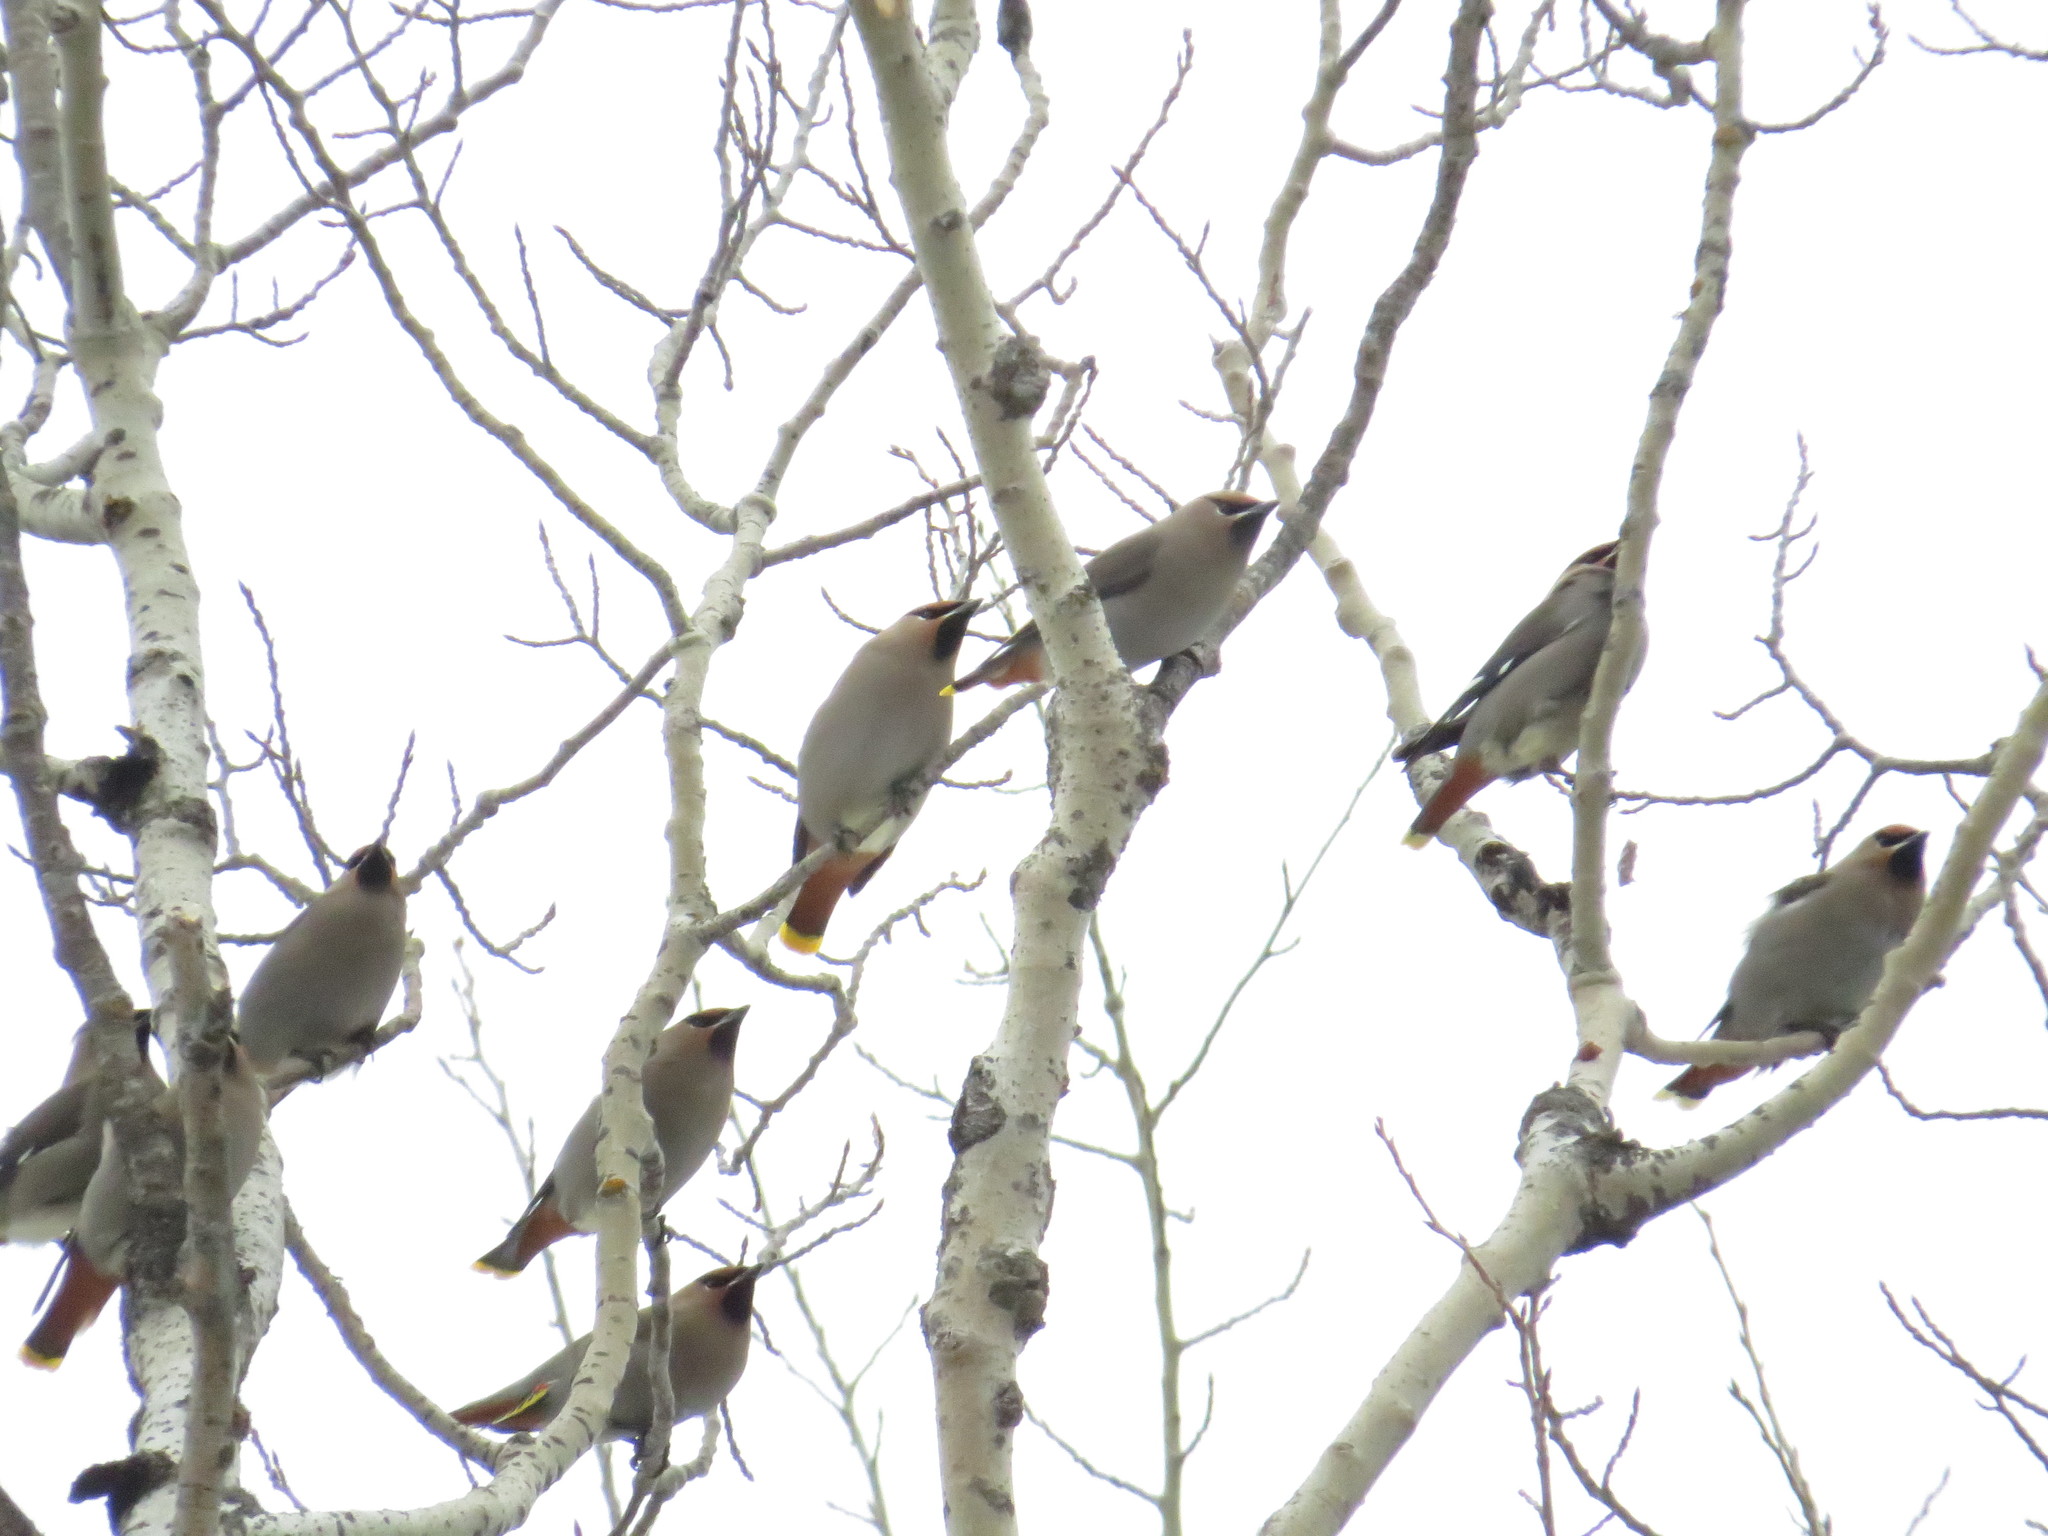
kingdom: Animalia
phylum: Chordata
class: Aves
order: Passeriformes
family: Bombycillidae
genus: Bombycilla
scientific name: Bombycilla garrulus
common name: Bohemian waxwing
